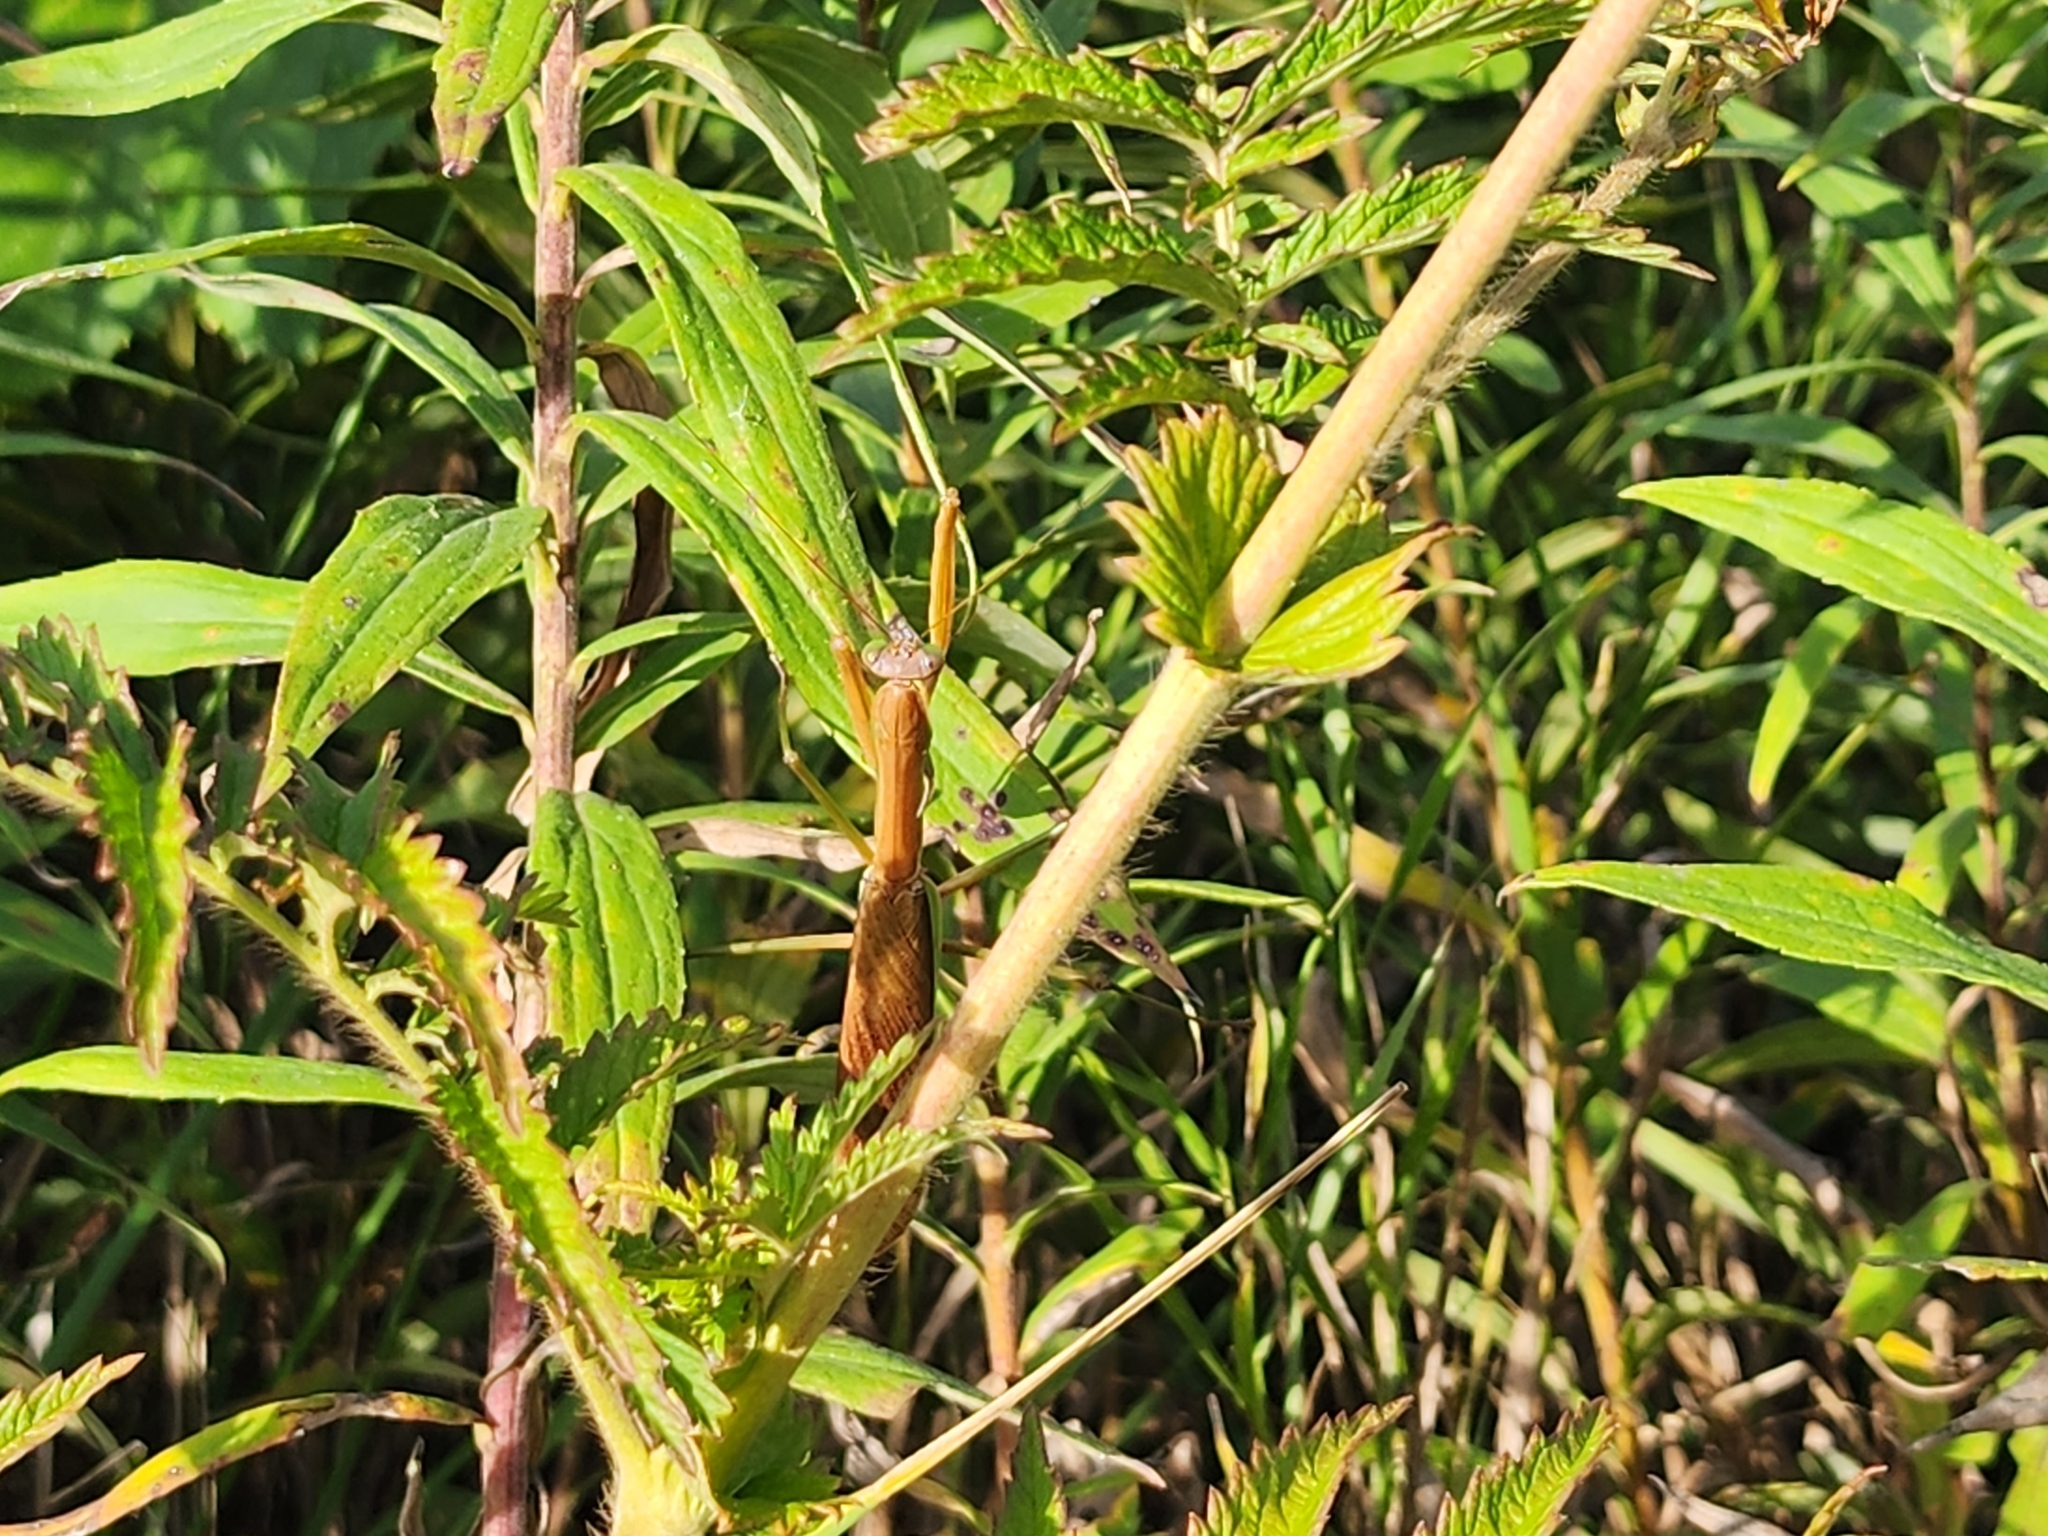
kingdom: Animalia
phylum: Arthropoda
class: Insecta
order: Mantodea
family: Mantidae
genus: Tenodera
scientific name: Tenodera sinensis
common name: Chinese mantis
